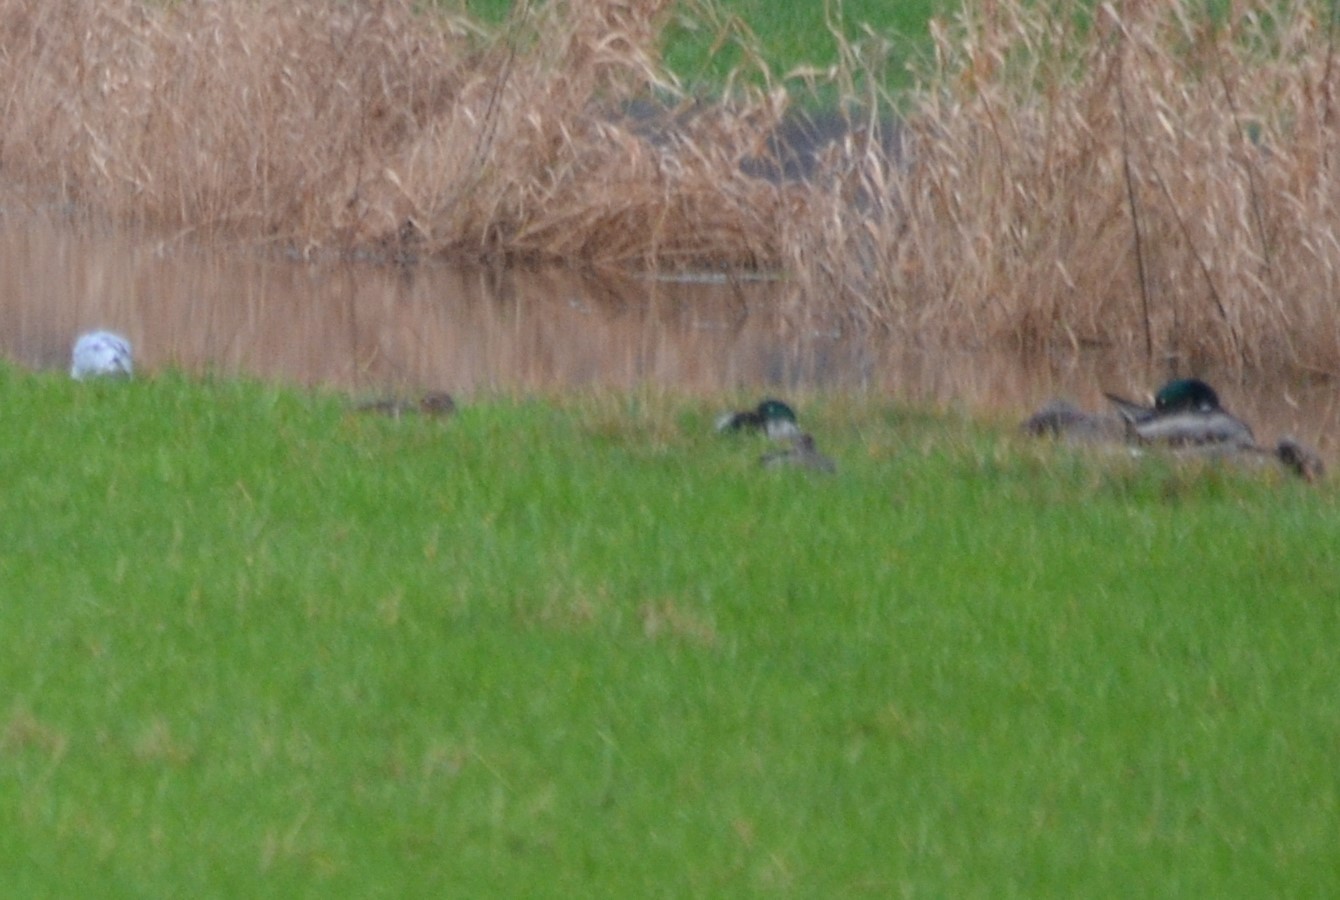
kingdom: Animalia
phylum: Chordata
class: Aves
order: Anseriformes
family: Anatidae
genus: Anas
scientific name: Anas platyrhynchos
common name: Mallard
